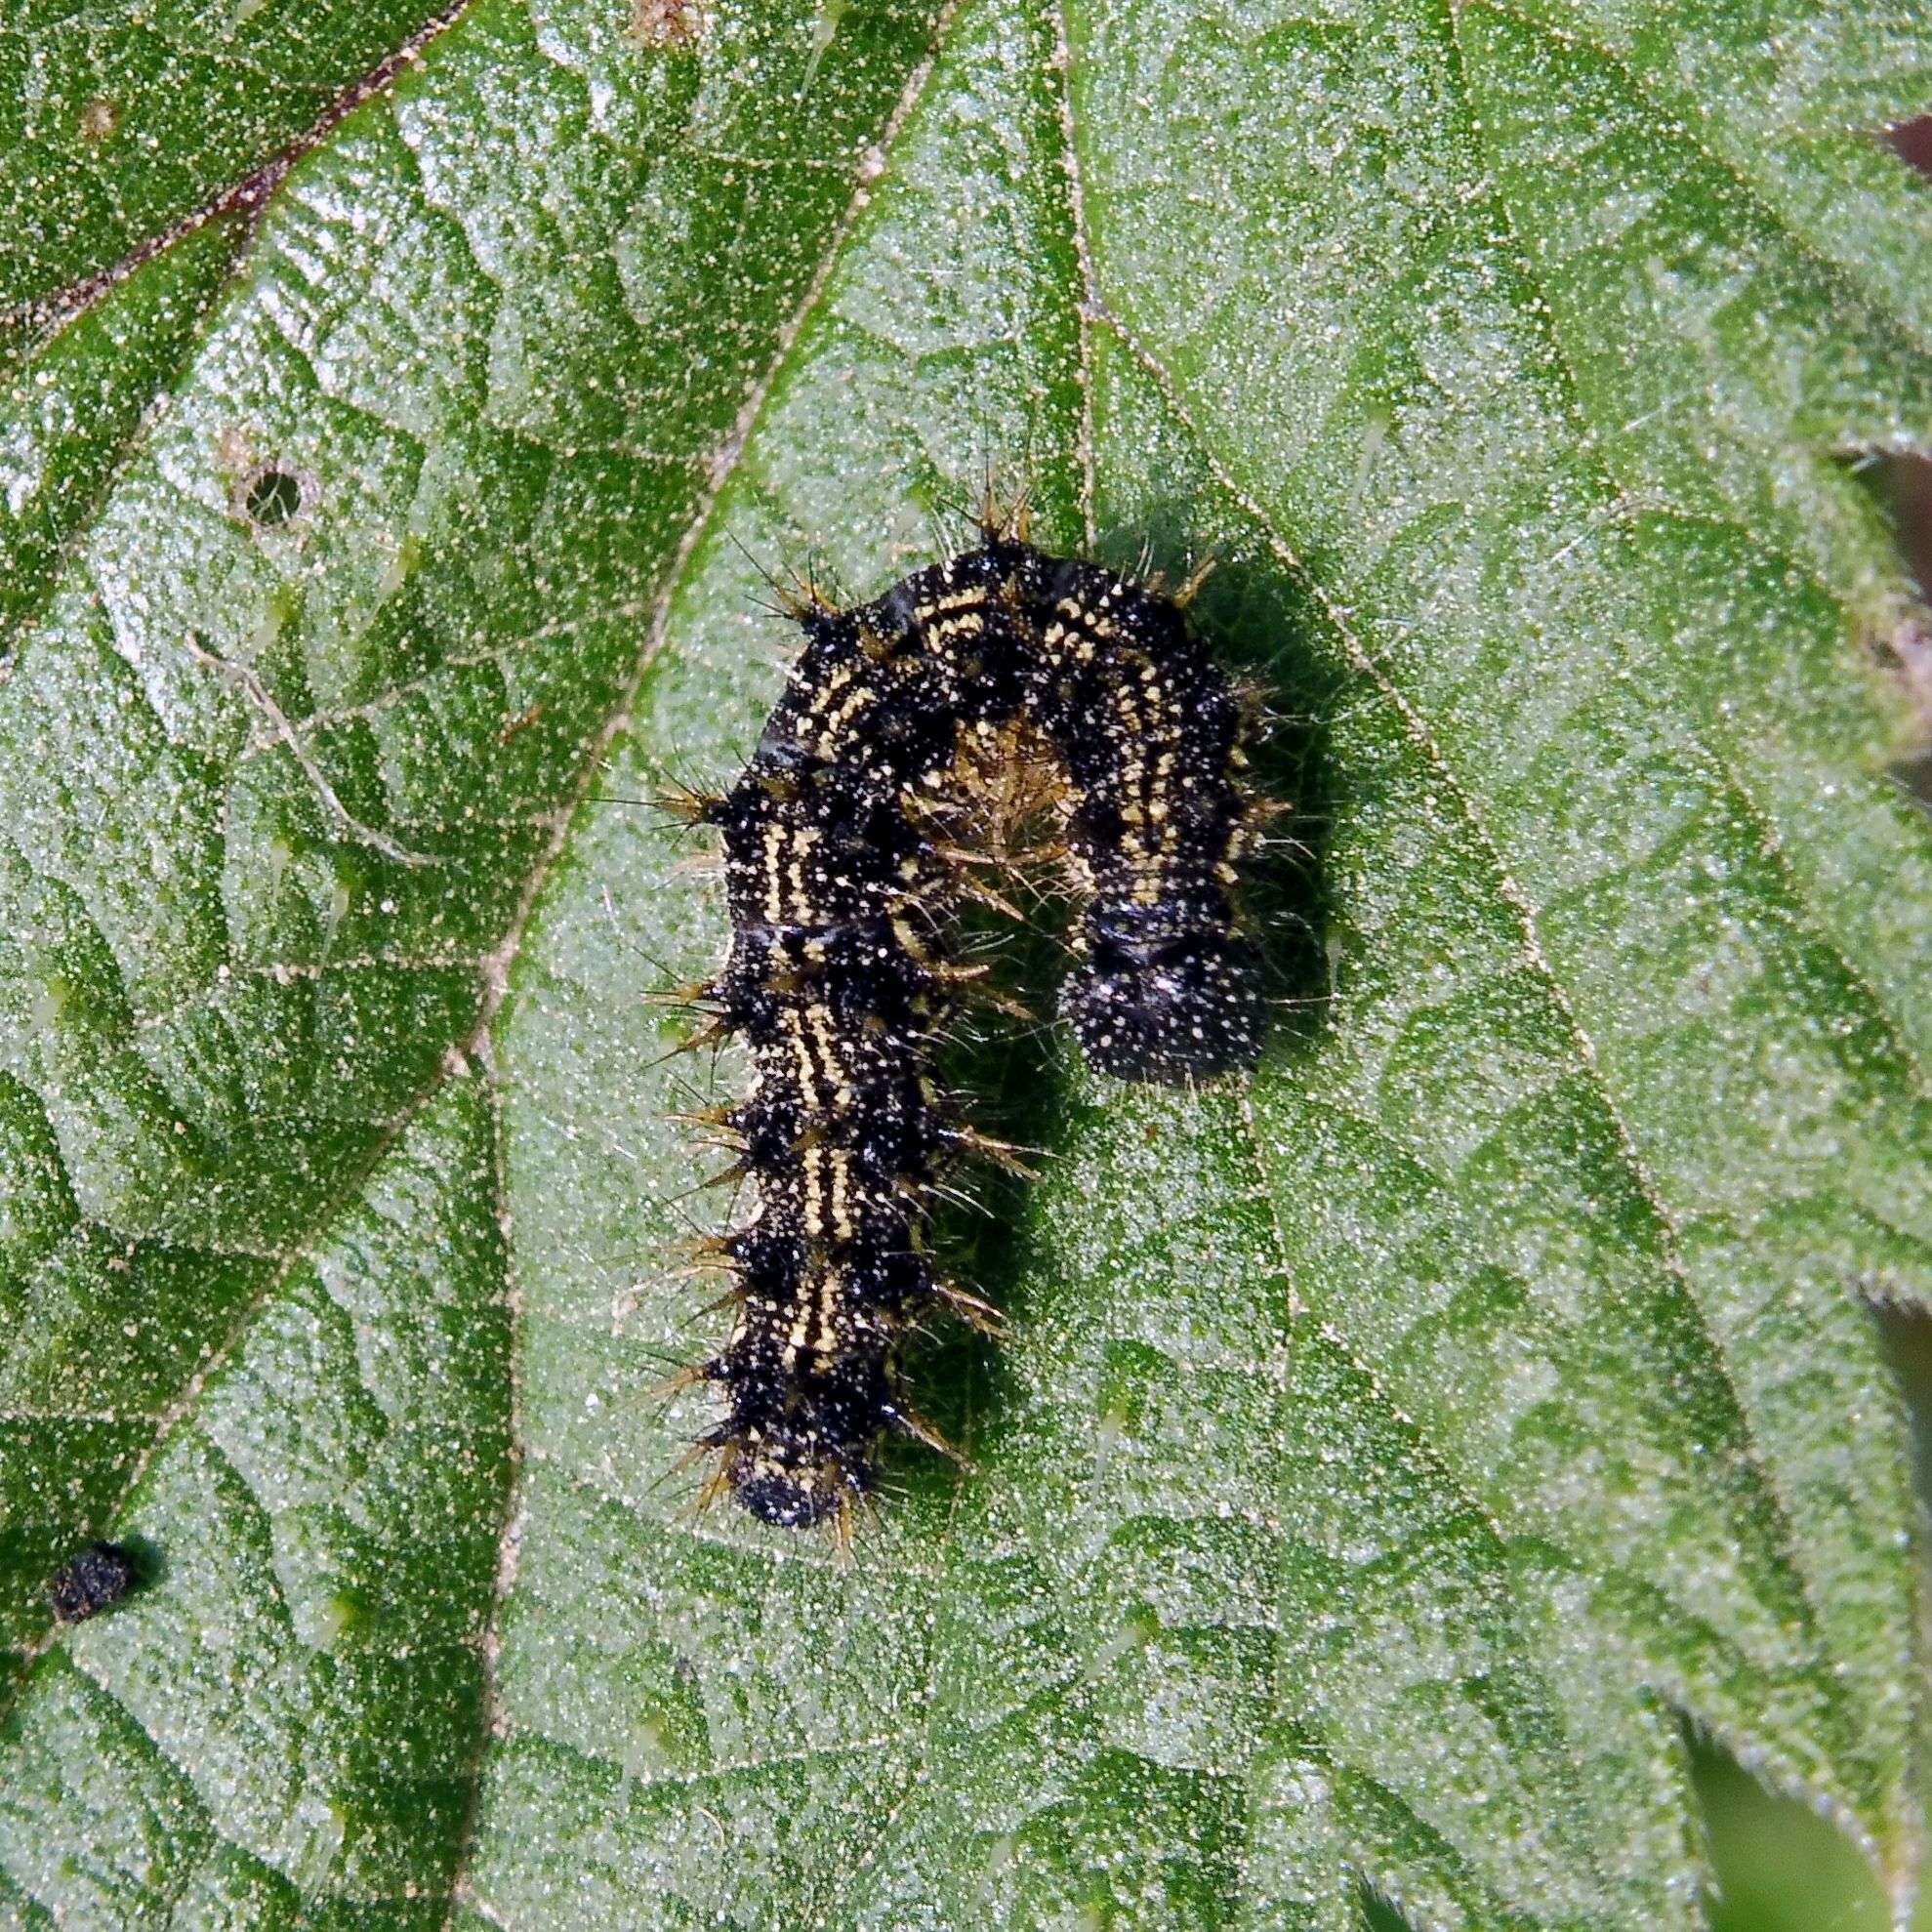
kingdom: Animalia
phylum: Arthropoda
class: Insecta
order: Lepidoptera
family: Nymphalidae
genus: Aglais
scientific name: Aglais urticae
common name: Small tortoiseshell
